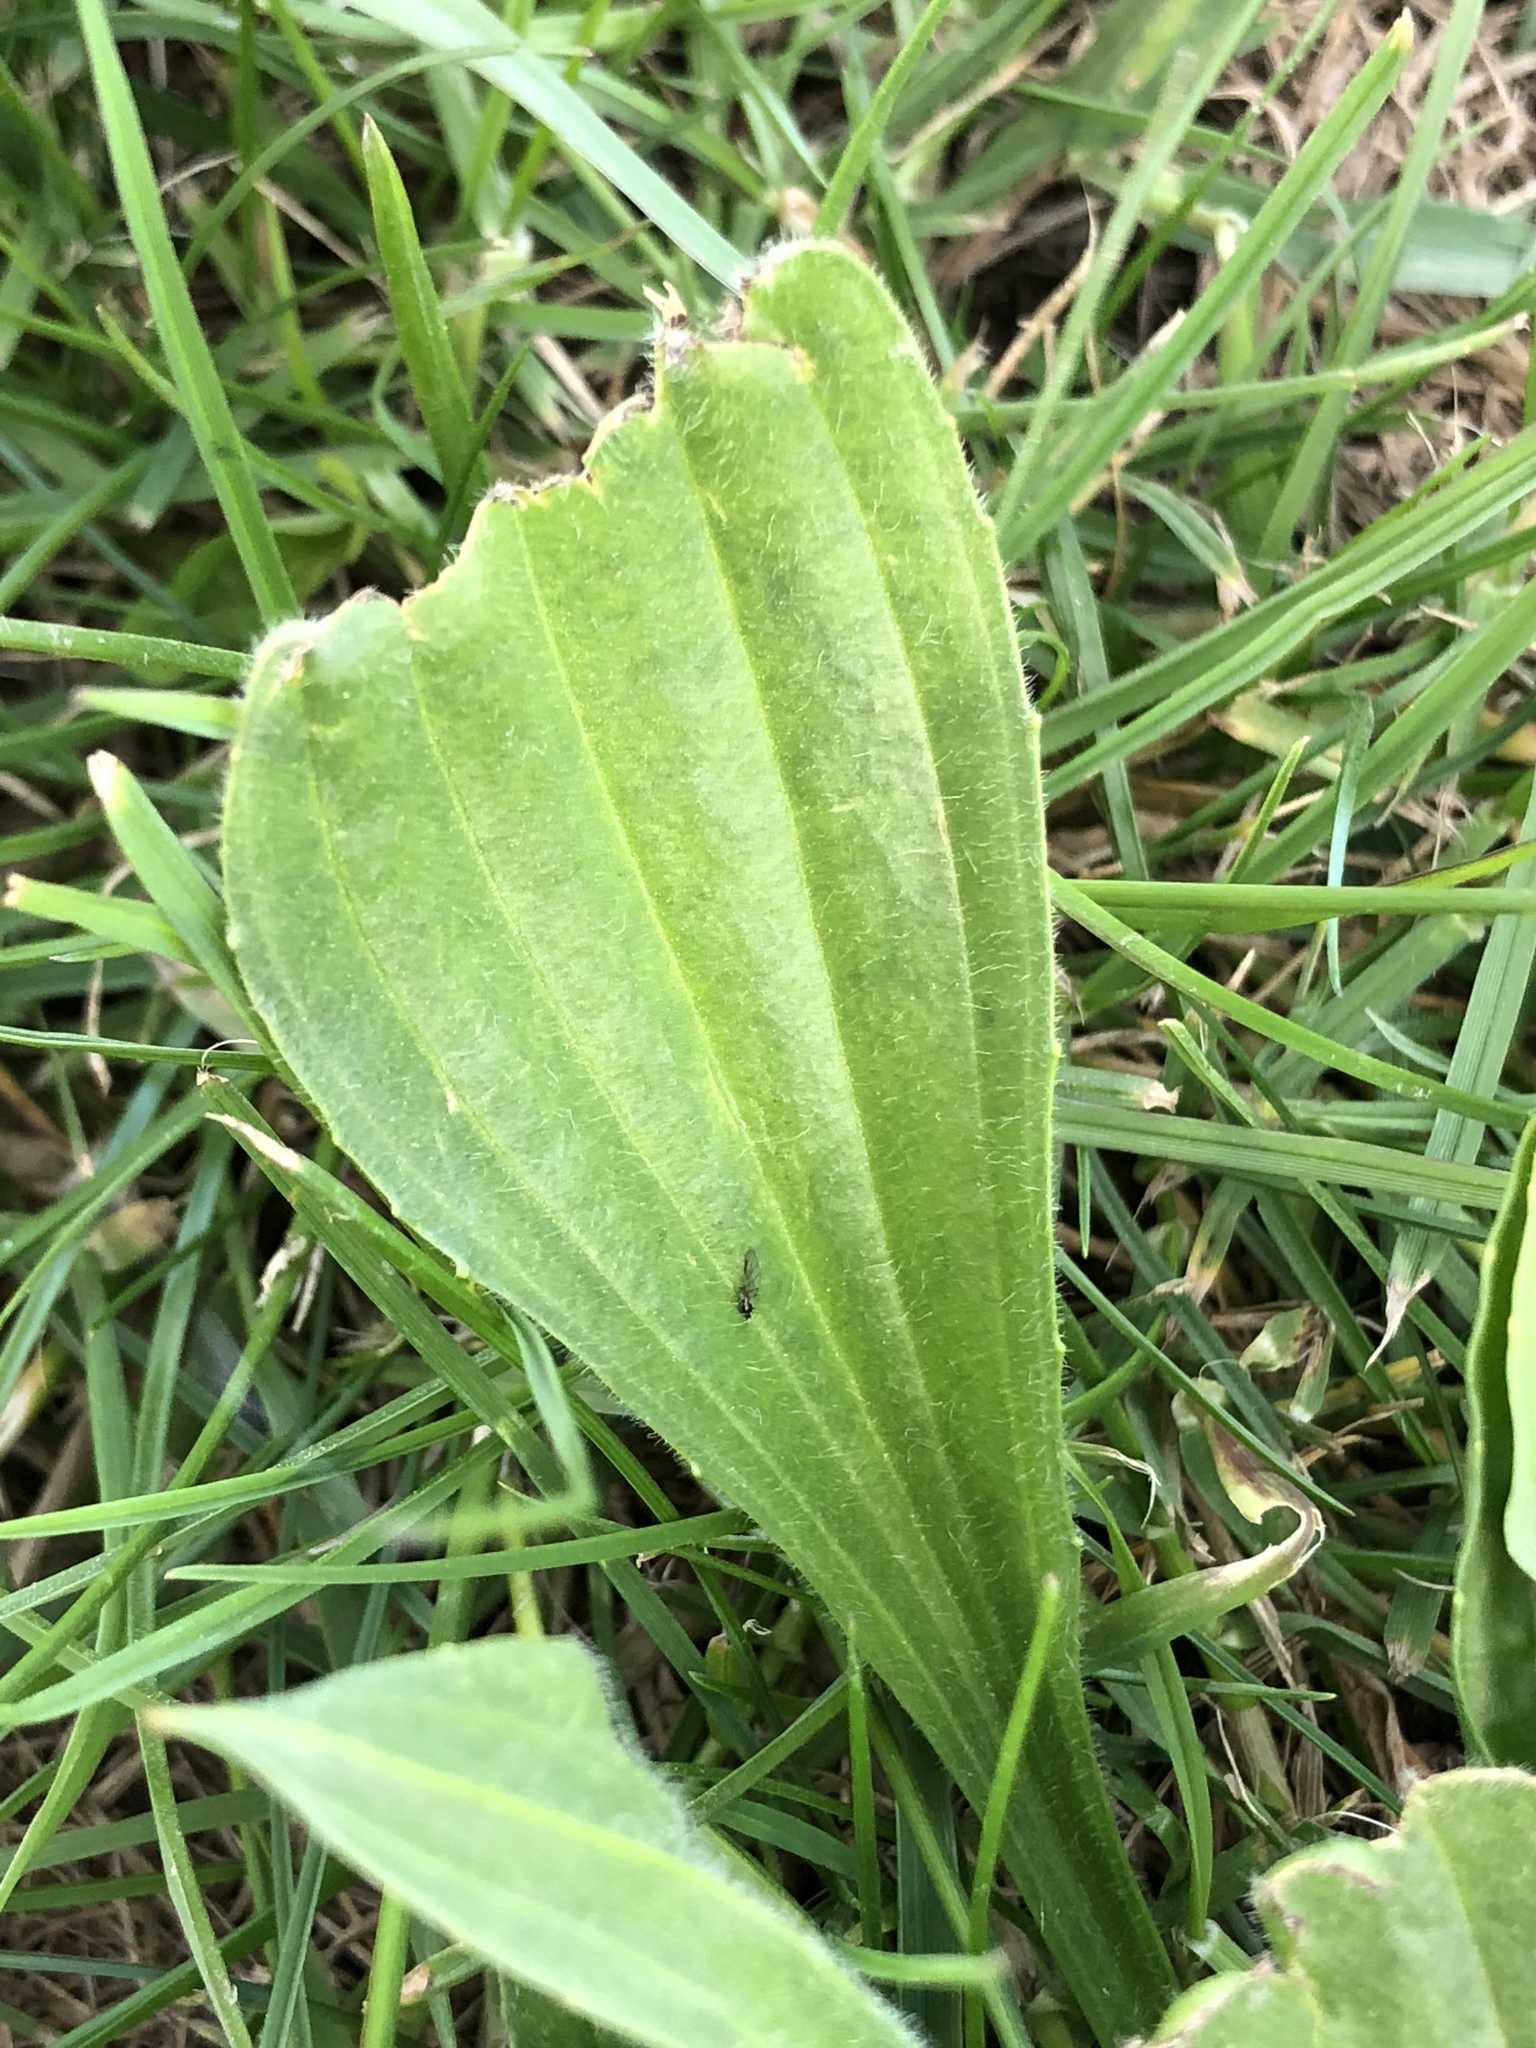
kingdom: Plantae
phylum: Tracheophyta
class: Magnoliopsida
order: Lamiales
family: Plantaginaceae
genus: Plantago
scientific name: Plantago lanceolata
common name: Ribwort plantain
